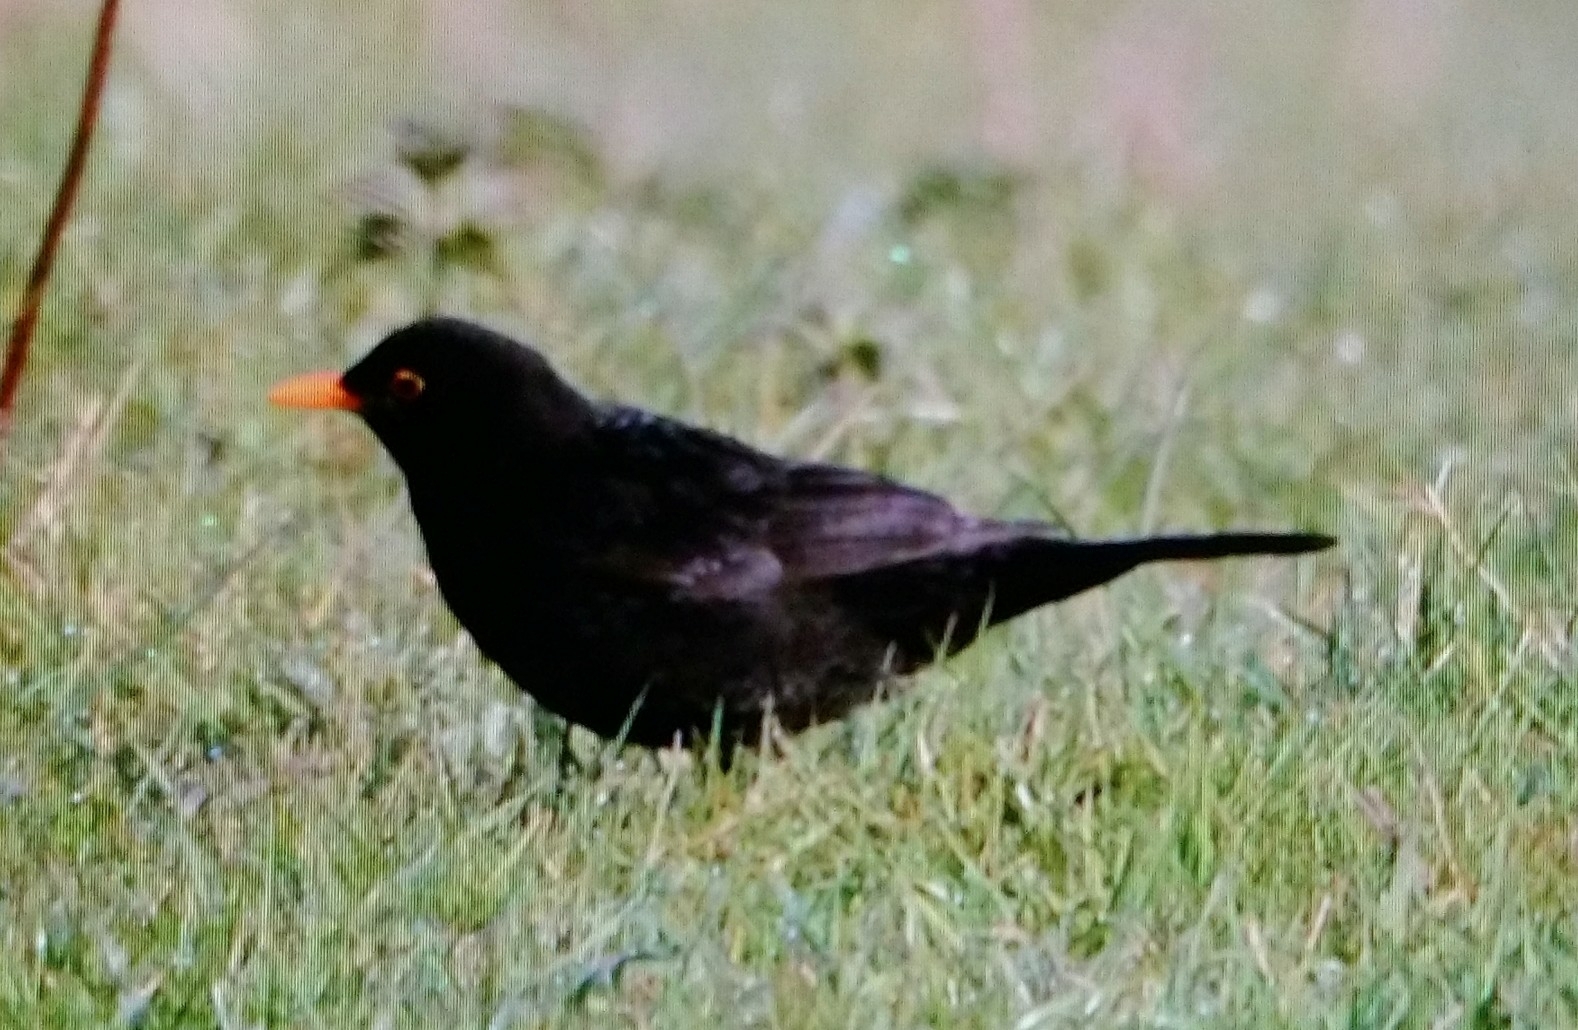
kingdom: Animalia
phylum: Chordata
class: Aves
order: Passeriformes
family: Turdidae
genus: Turdus
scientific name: Turdus merula
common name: Common blackbird
